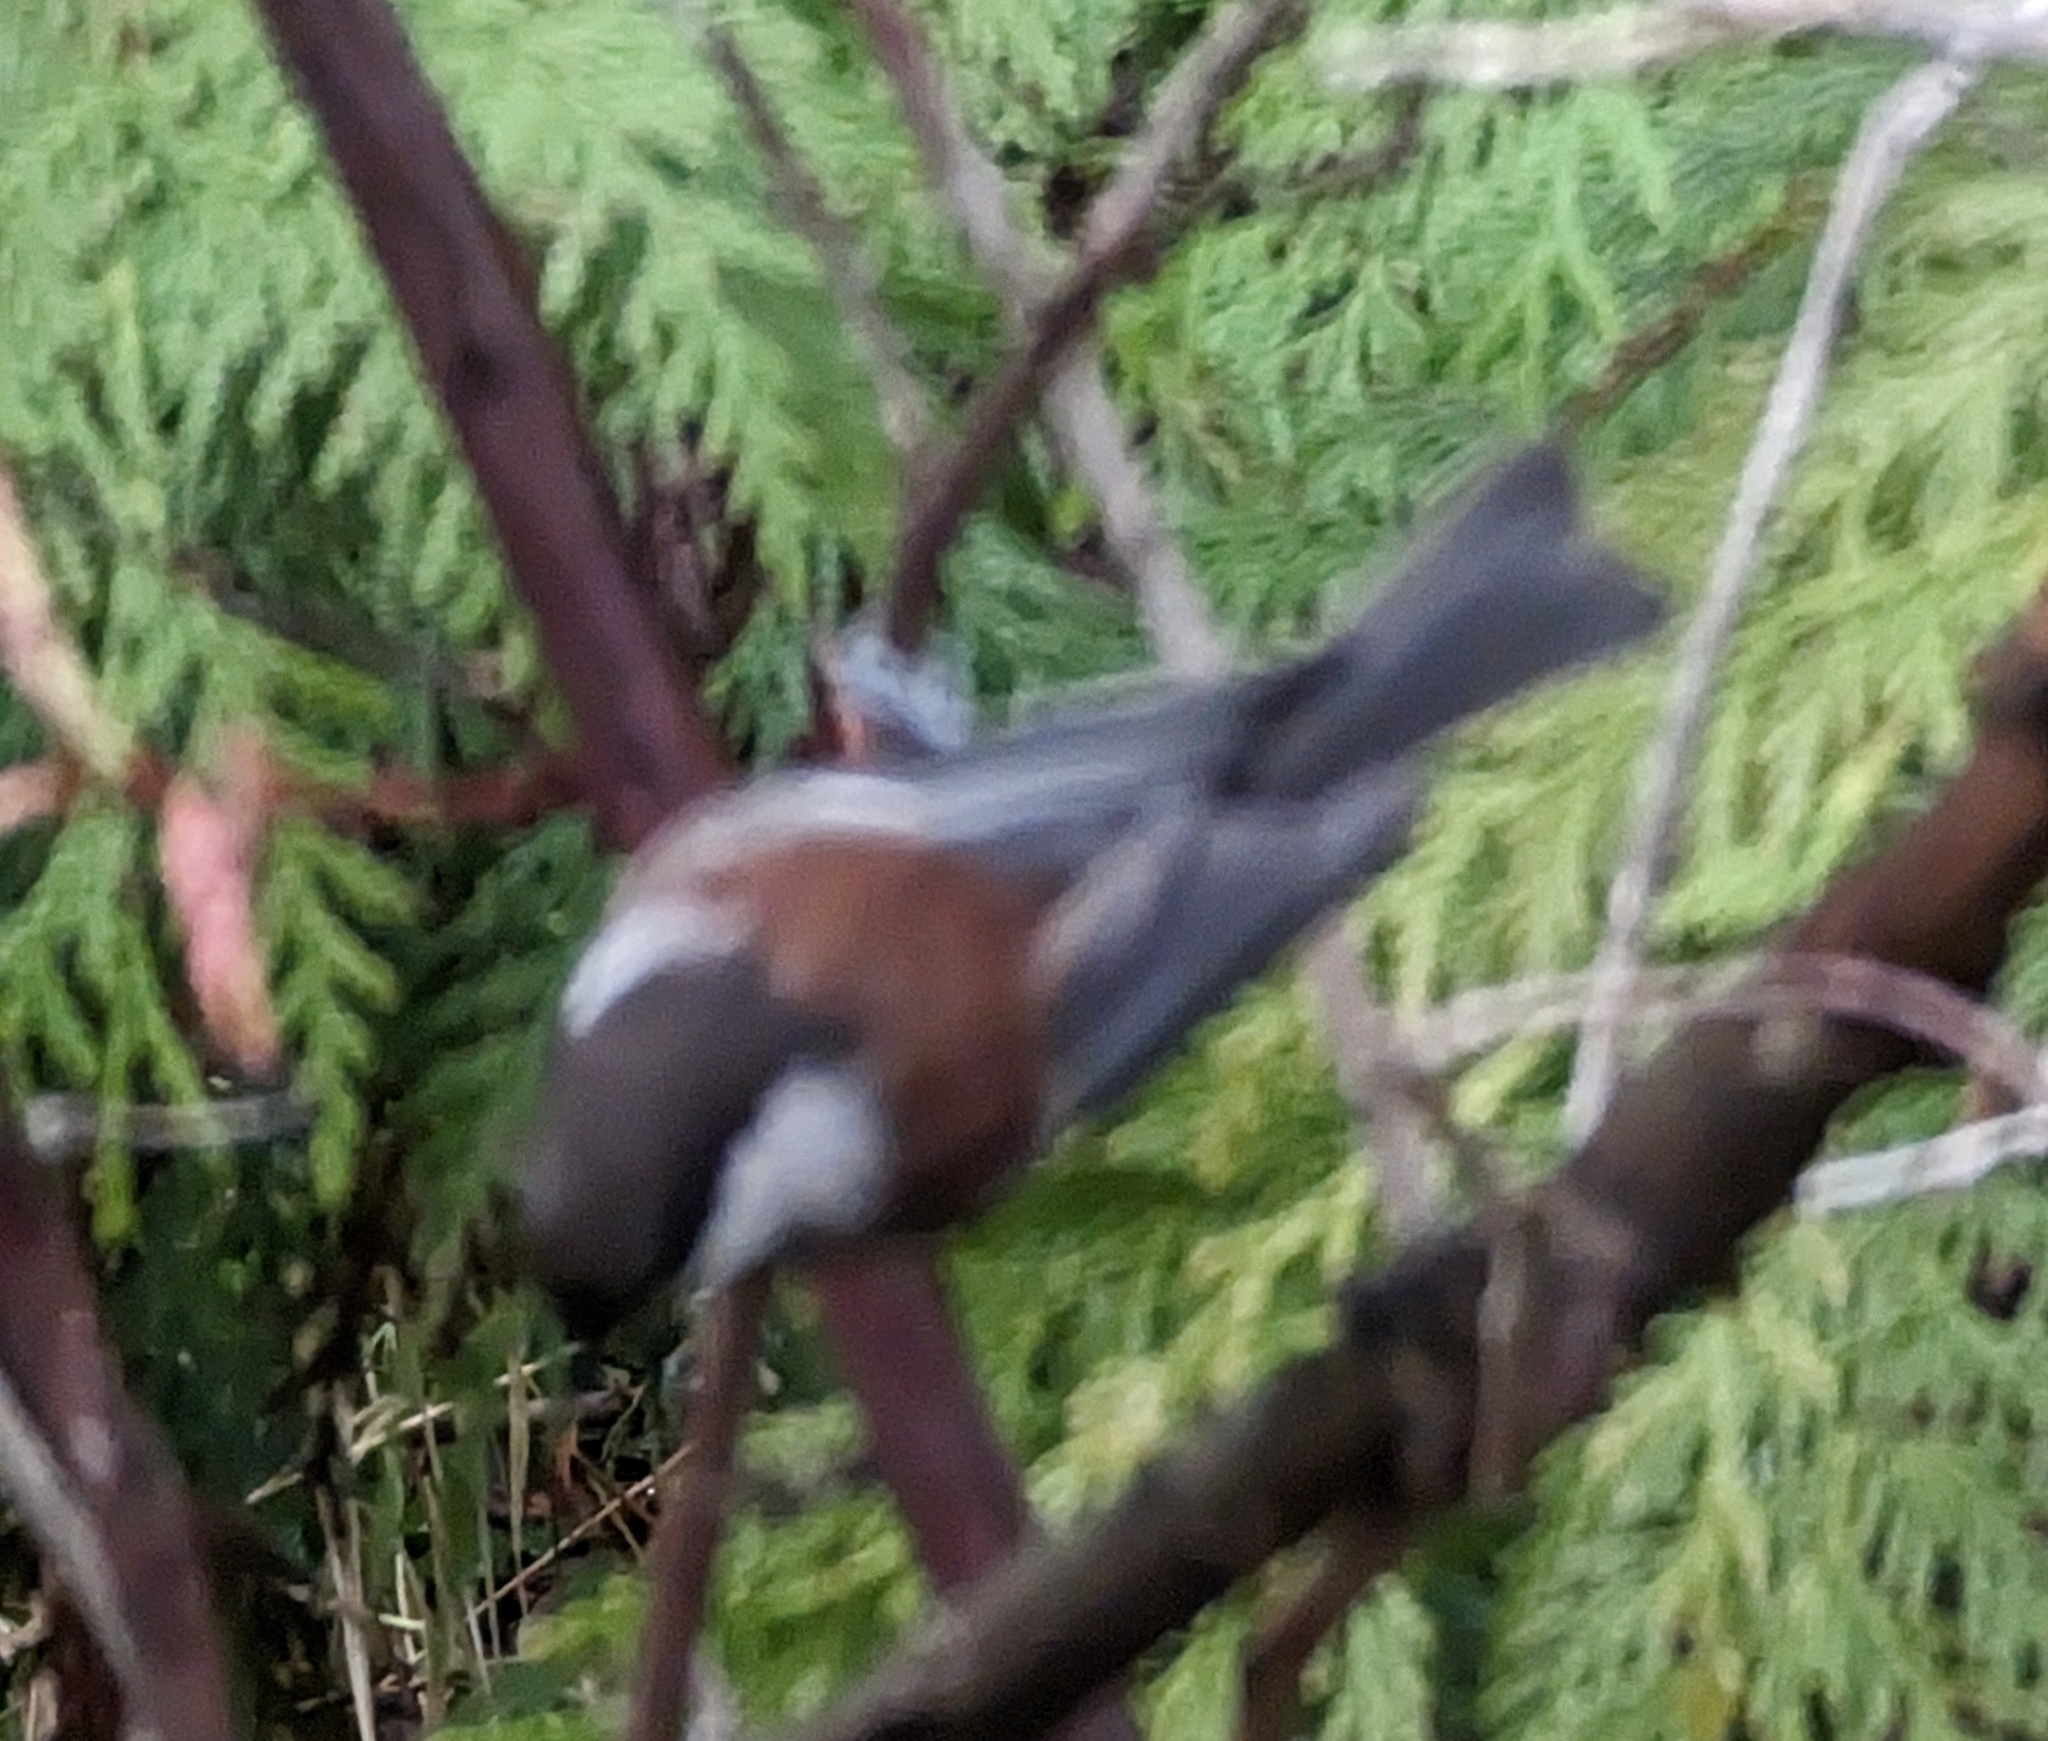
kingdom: Animalia
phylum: Chordata
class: Aves
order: Passeriformes
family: Paridae
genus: Poecile
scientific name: Poecile rufescens
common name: Chestnut-backed chickadee
